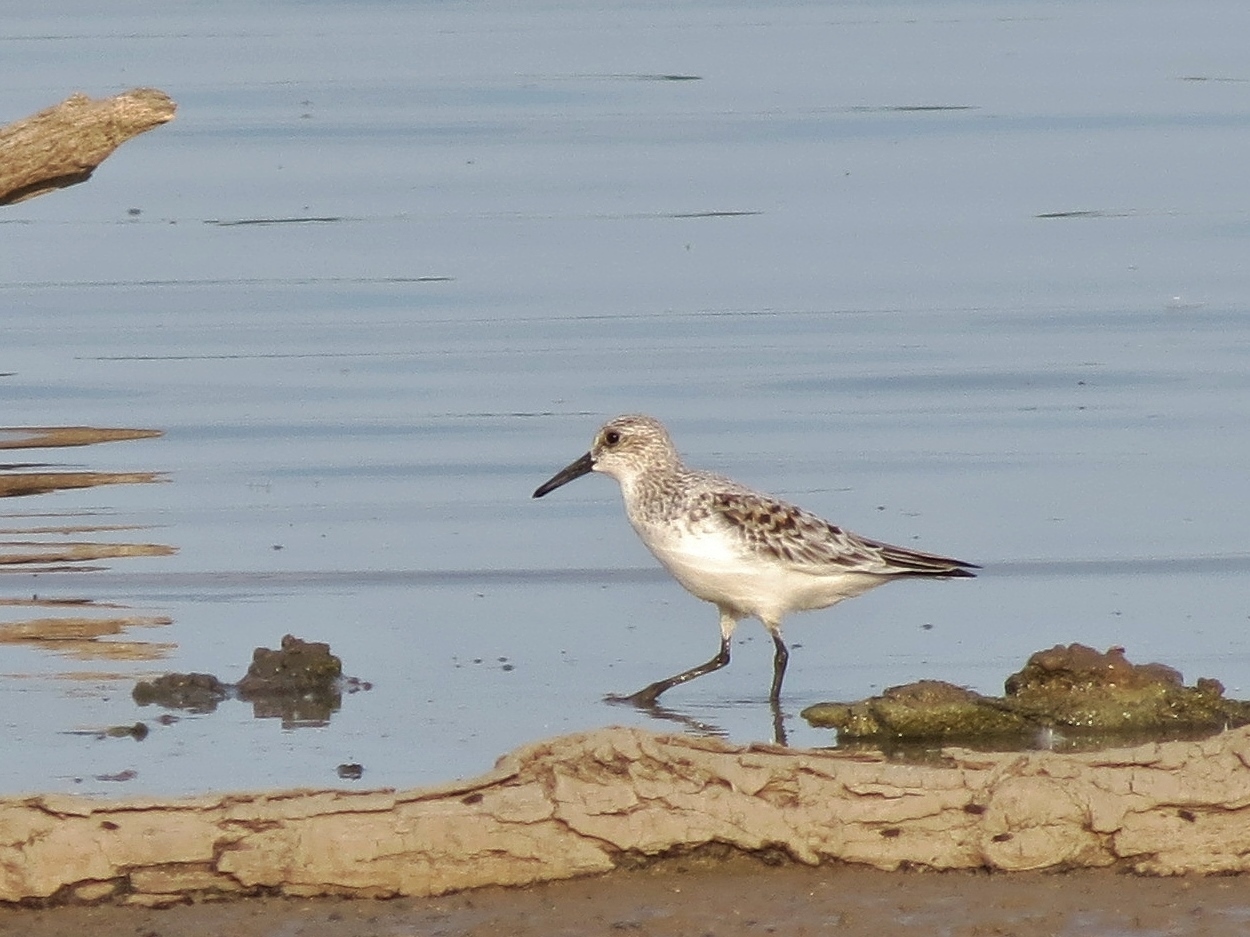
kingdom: Animalia
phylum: Chordata
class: Aves
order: Charadriiformes
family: Scolopacidae
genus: Calidris
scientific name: Calidris alba
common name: Sanderling
